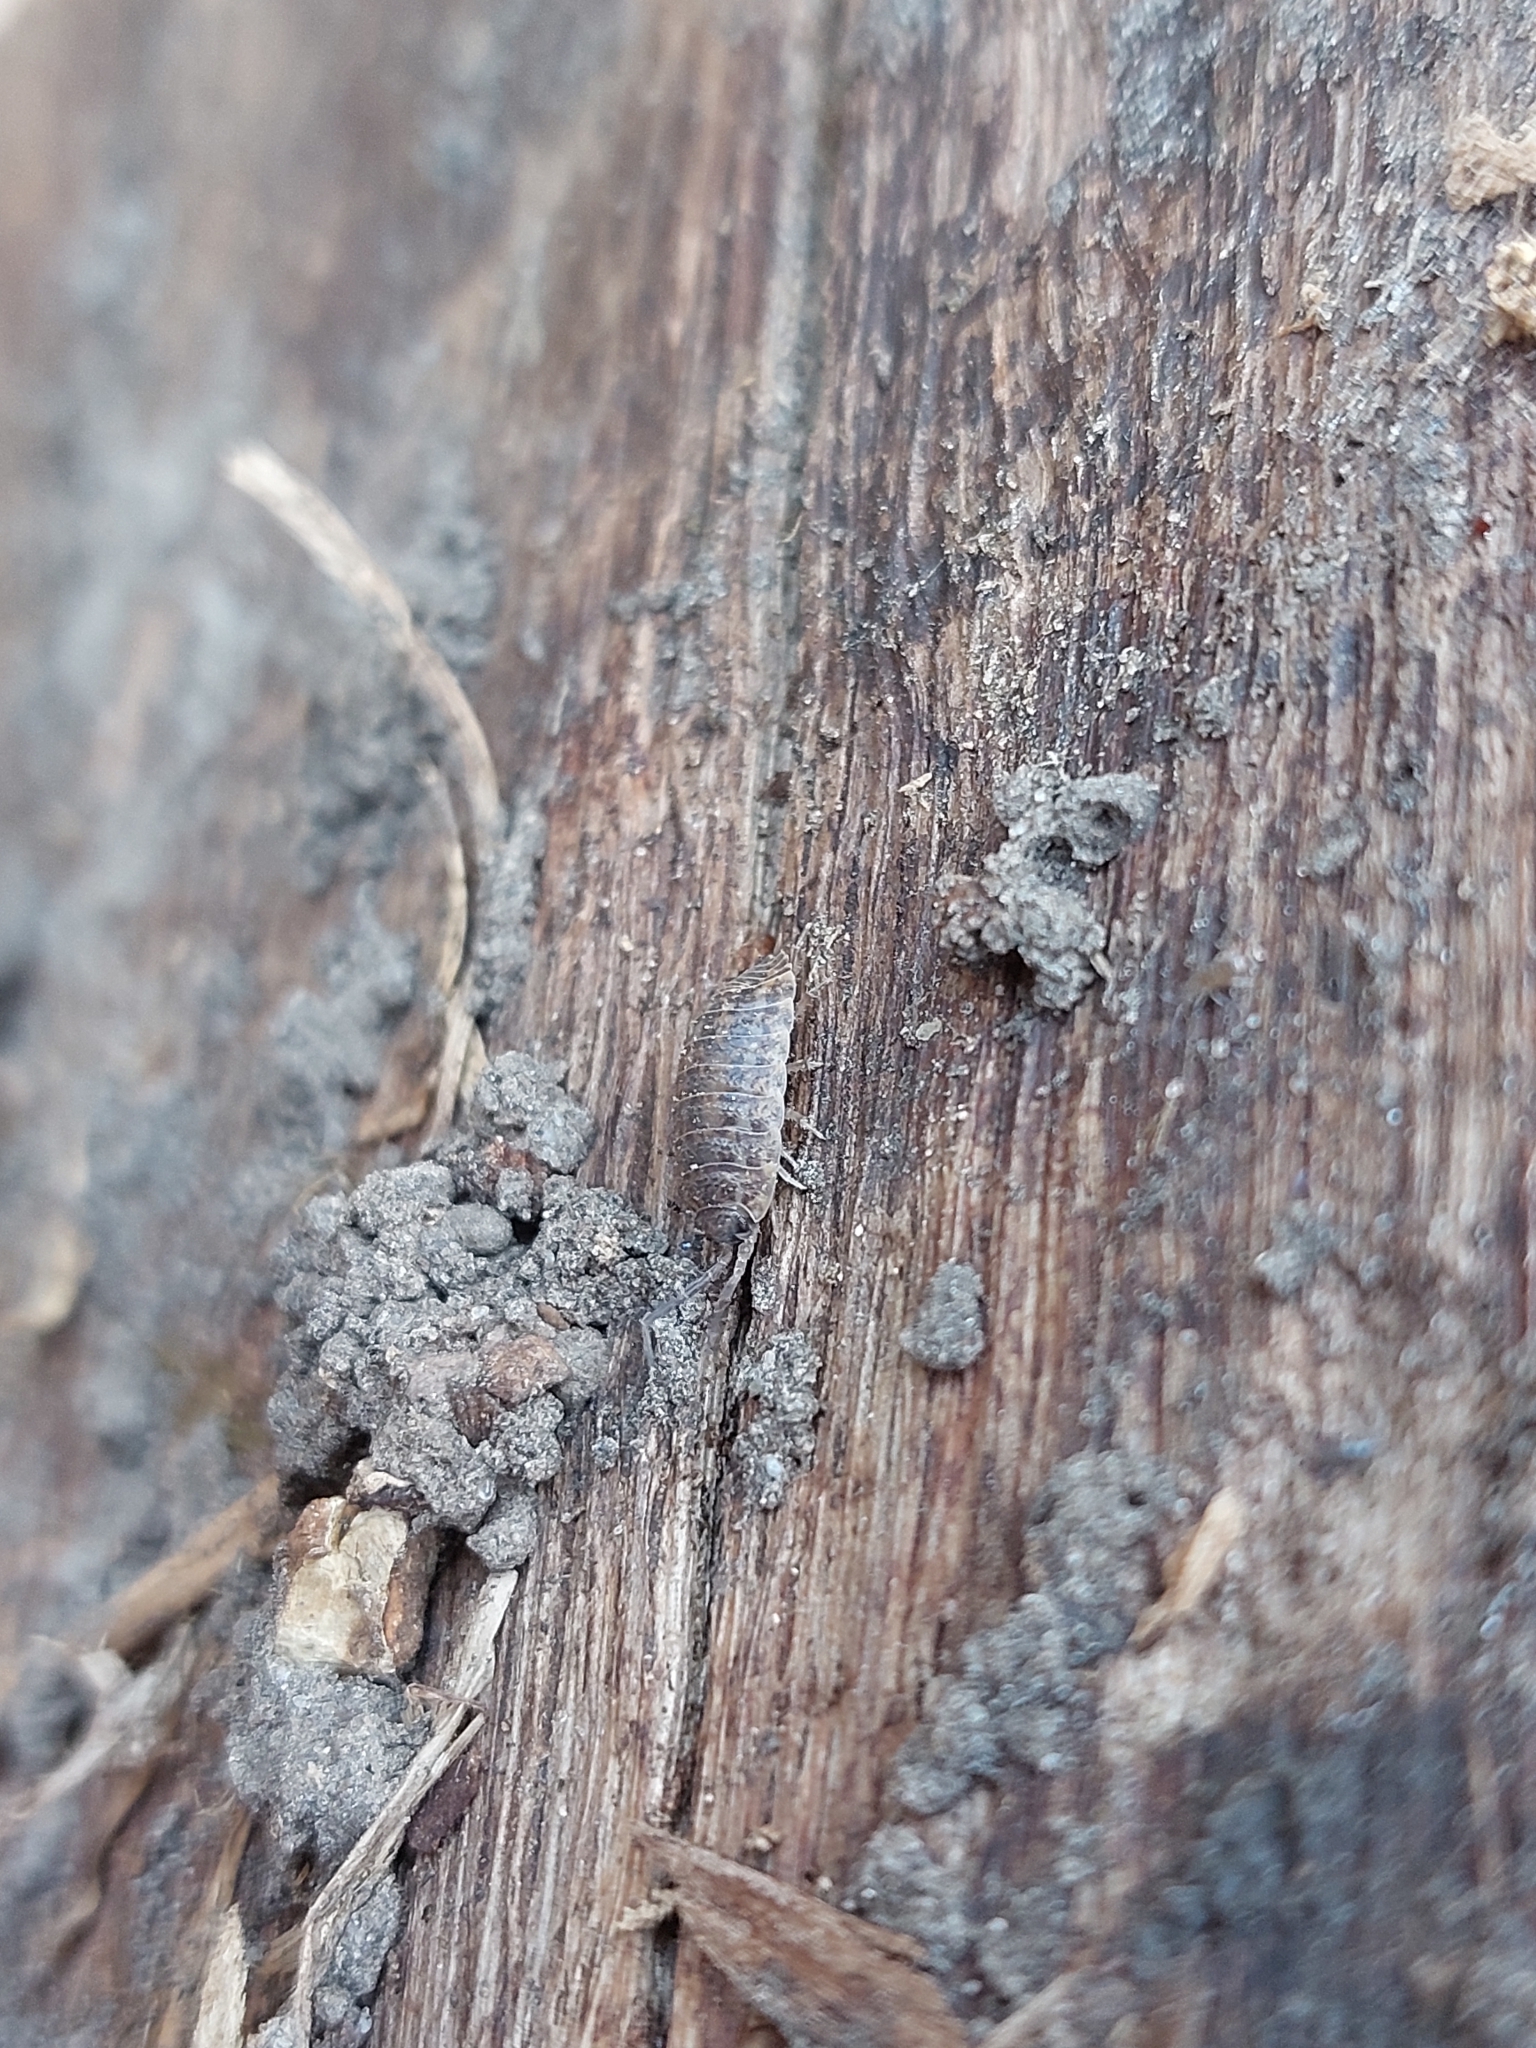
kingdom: Animalia
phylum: Arthropoda
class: Malacostraca
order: Isopoda
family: Trachelipodidae
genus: Trachelipus
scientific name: Trachelipus rathkii
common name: Isopod
